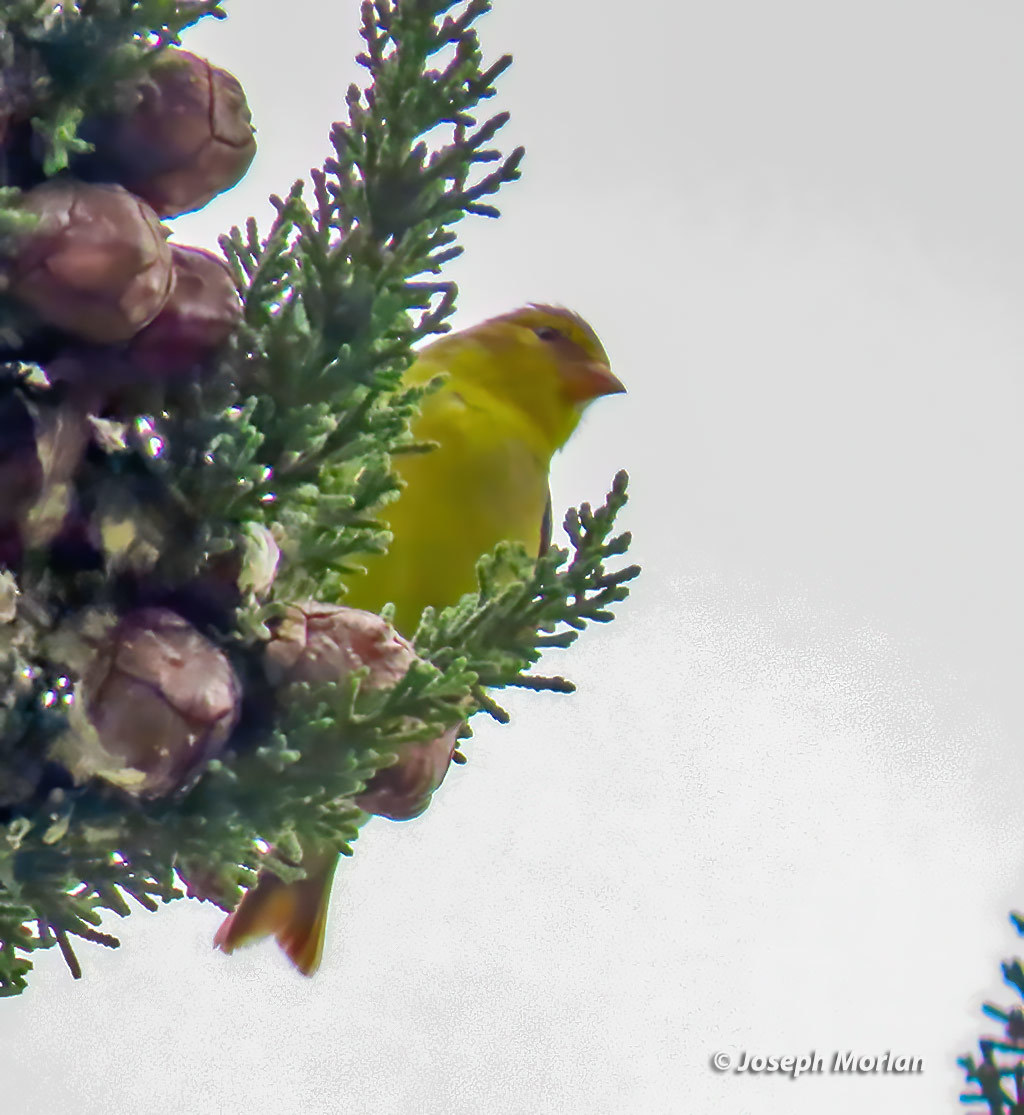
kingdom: Animalia
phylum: Chordata
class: Aves
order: Passeriformes
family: Fringillidae
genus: Spinus
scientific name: Spinus tristis
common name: American goldfinch
